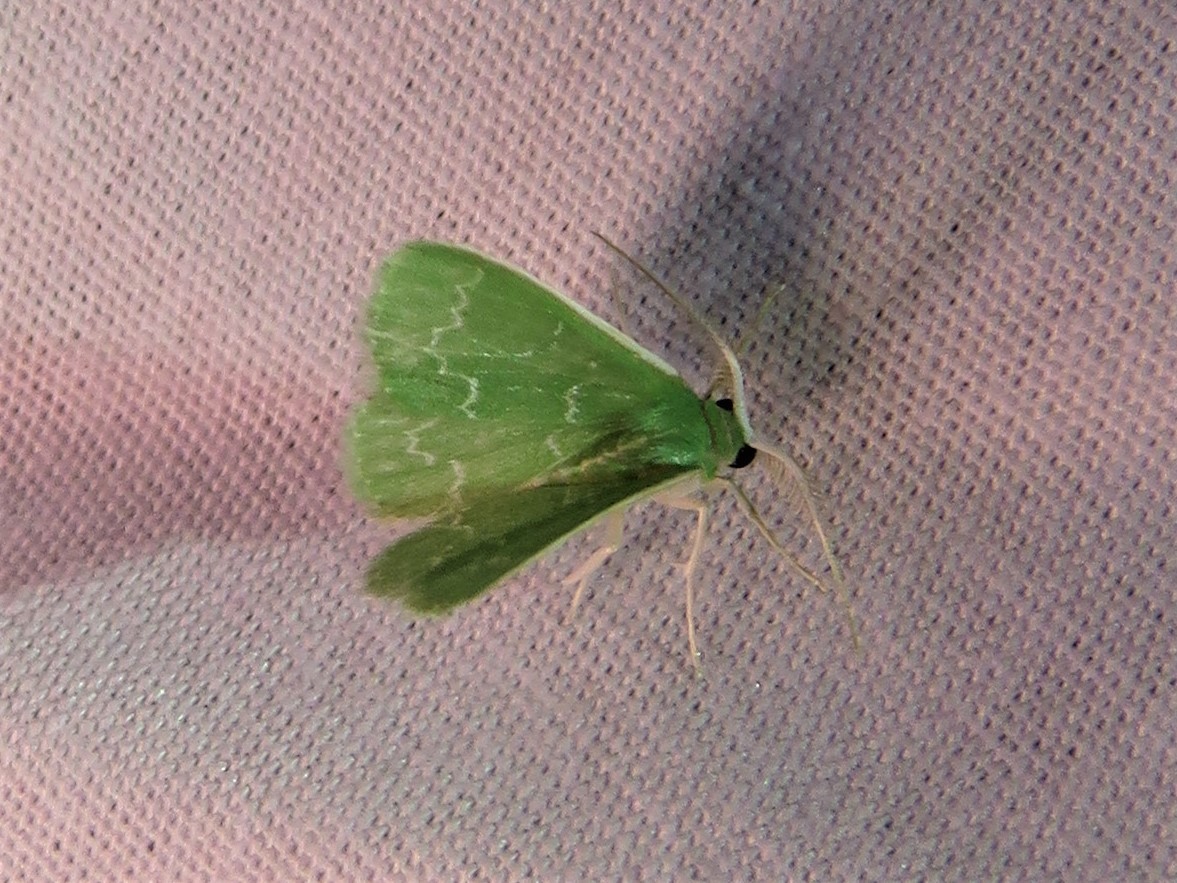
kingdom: Animalia
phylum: Arthropoda
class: Insecta
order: Lepidoptera
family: Geometridae
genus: Synchlora
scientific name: Synchlora frondaria
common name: Southern emerald
